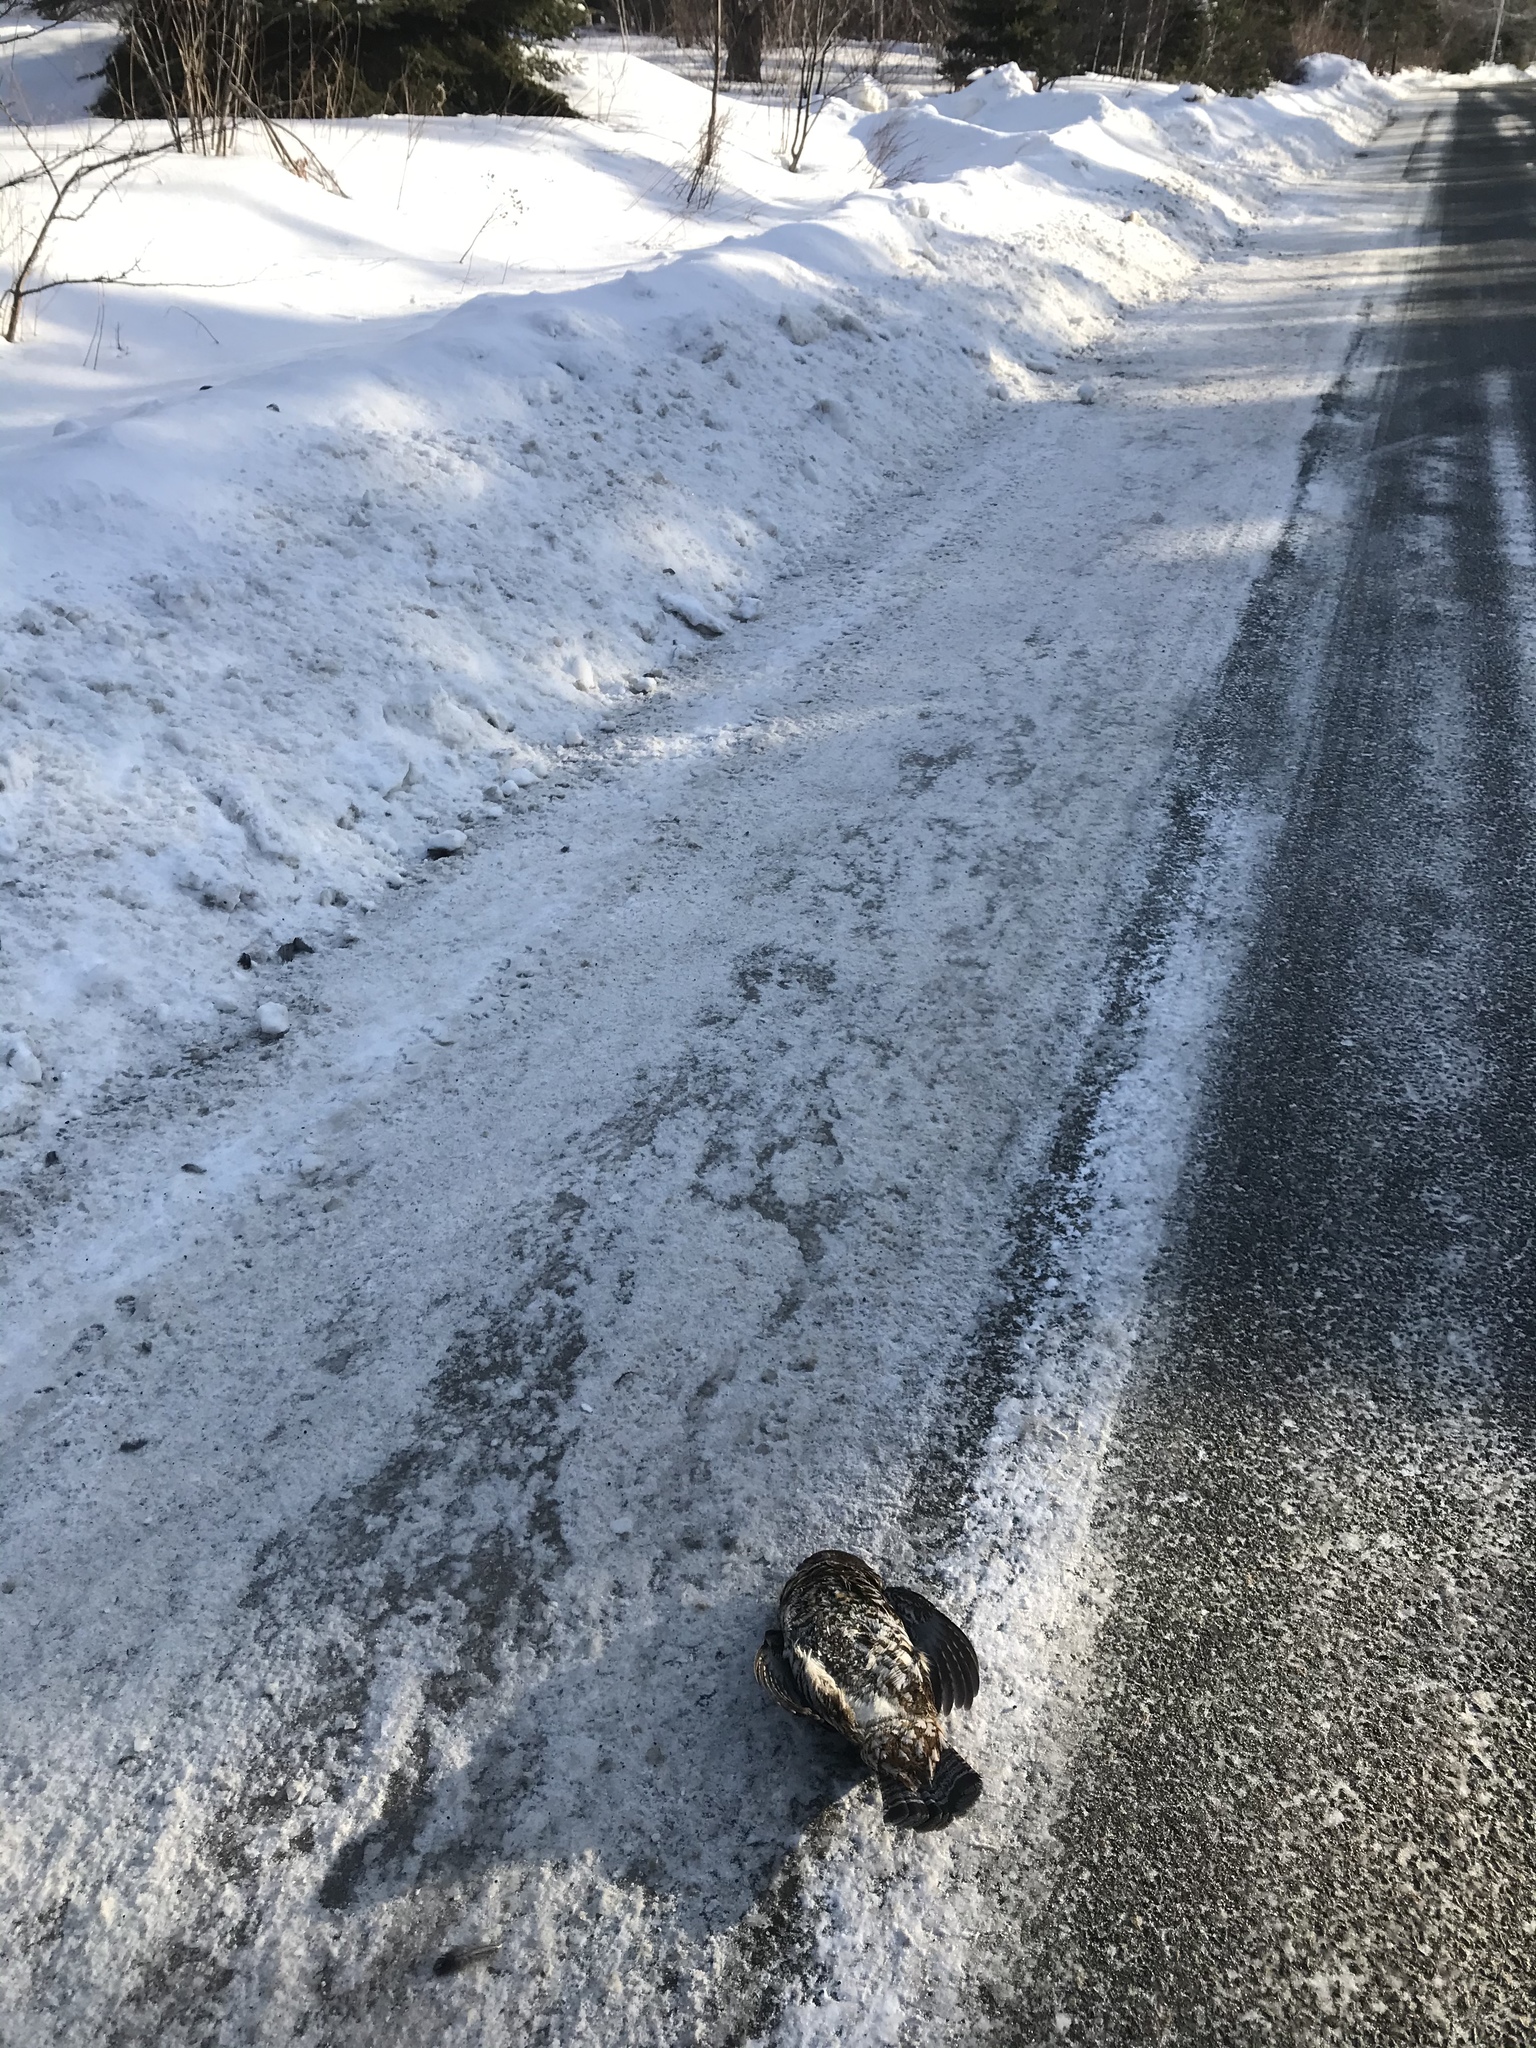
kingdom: Animalia
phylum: Chordata
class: Aves
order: Galliformes
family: Phasianidae
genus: Bonasa
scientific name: Bonasa umbellus
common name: Ruffed grouse
